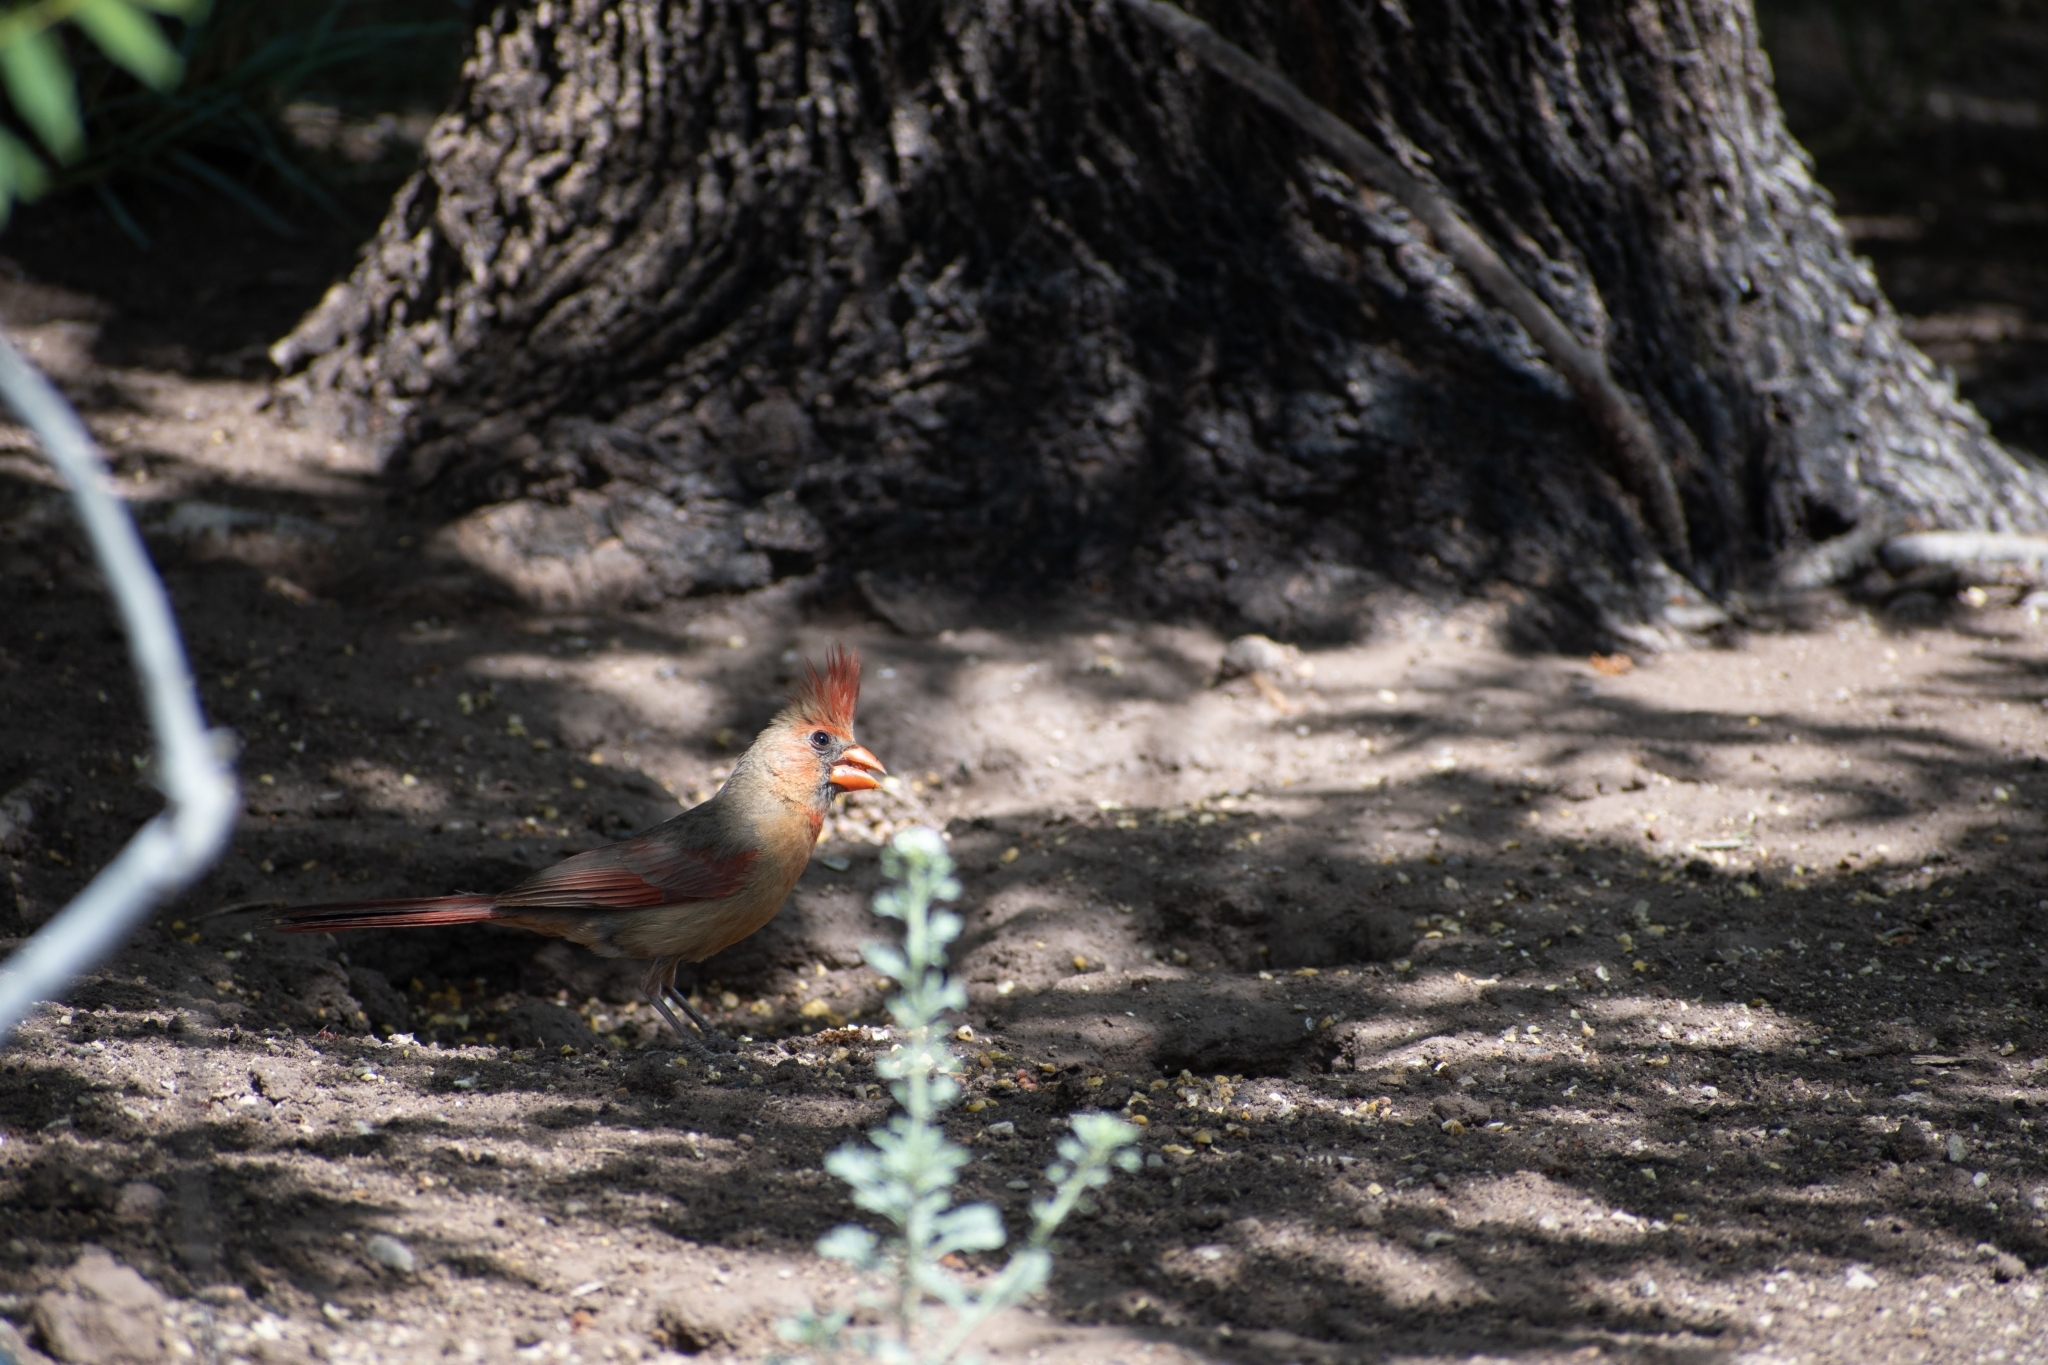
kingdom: Animalia
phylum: Chordata
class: Aves
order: Passeriformes
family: Cardinalidae
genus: Cardinalis
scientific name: Cardinalis cardinalis
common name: Northern cardinal
